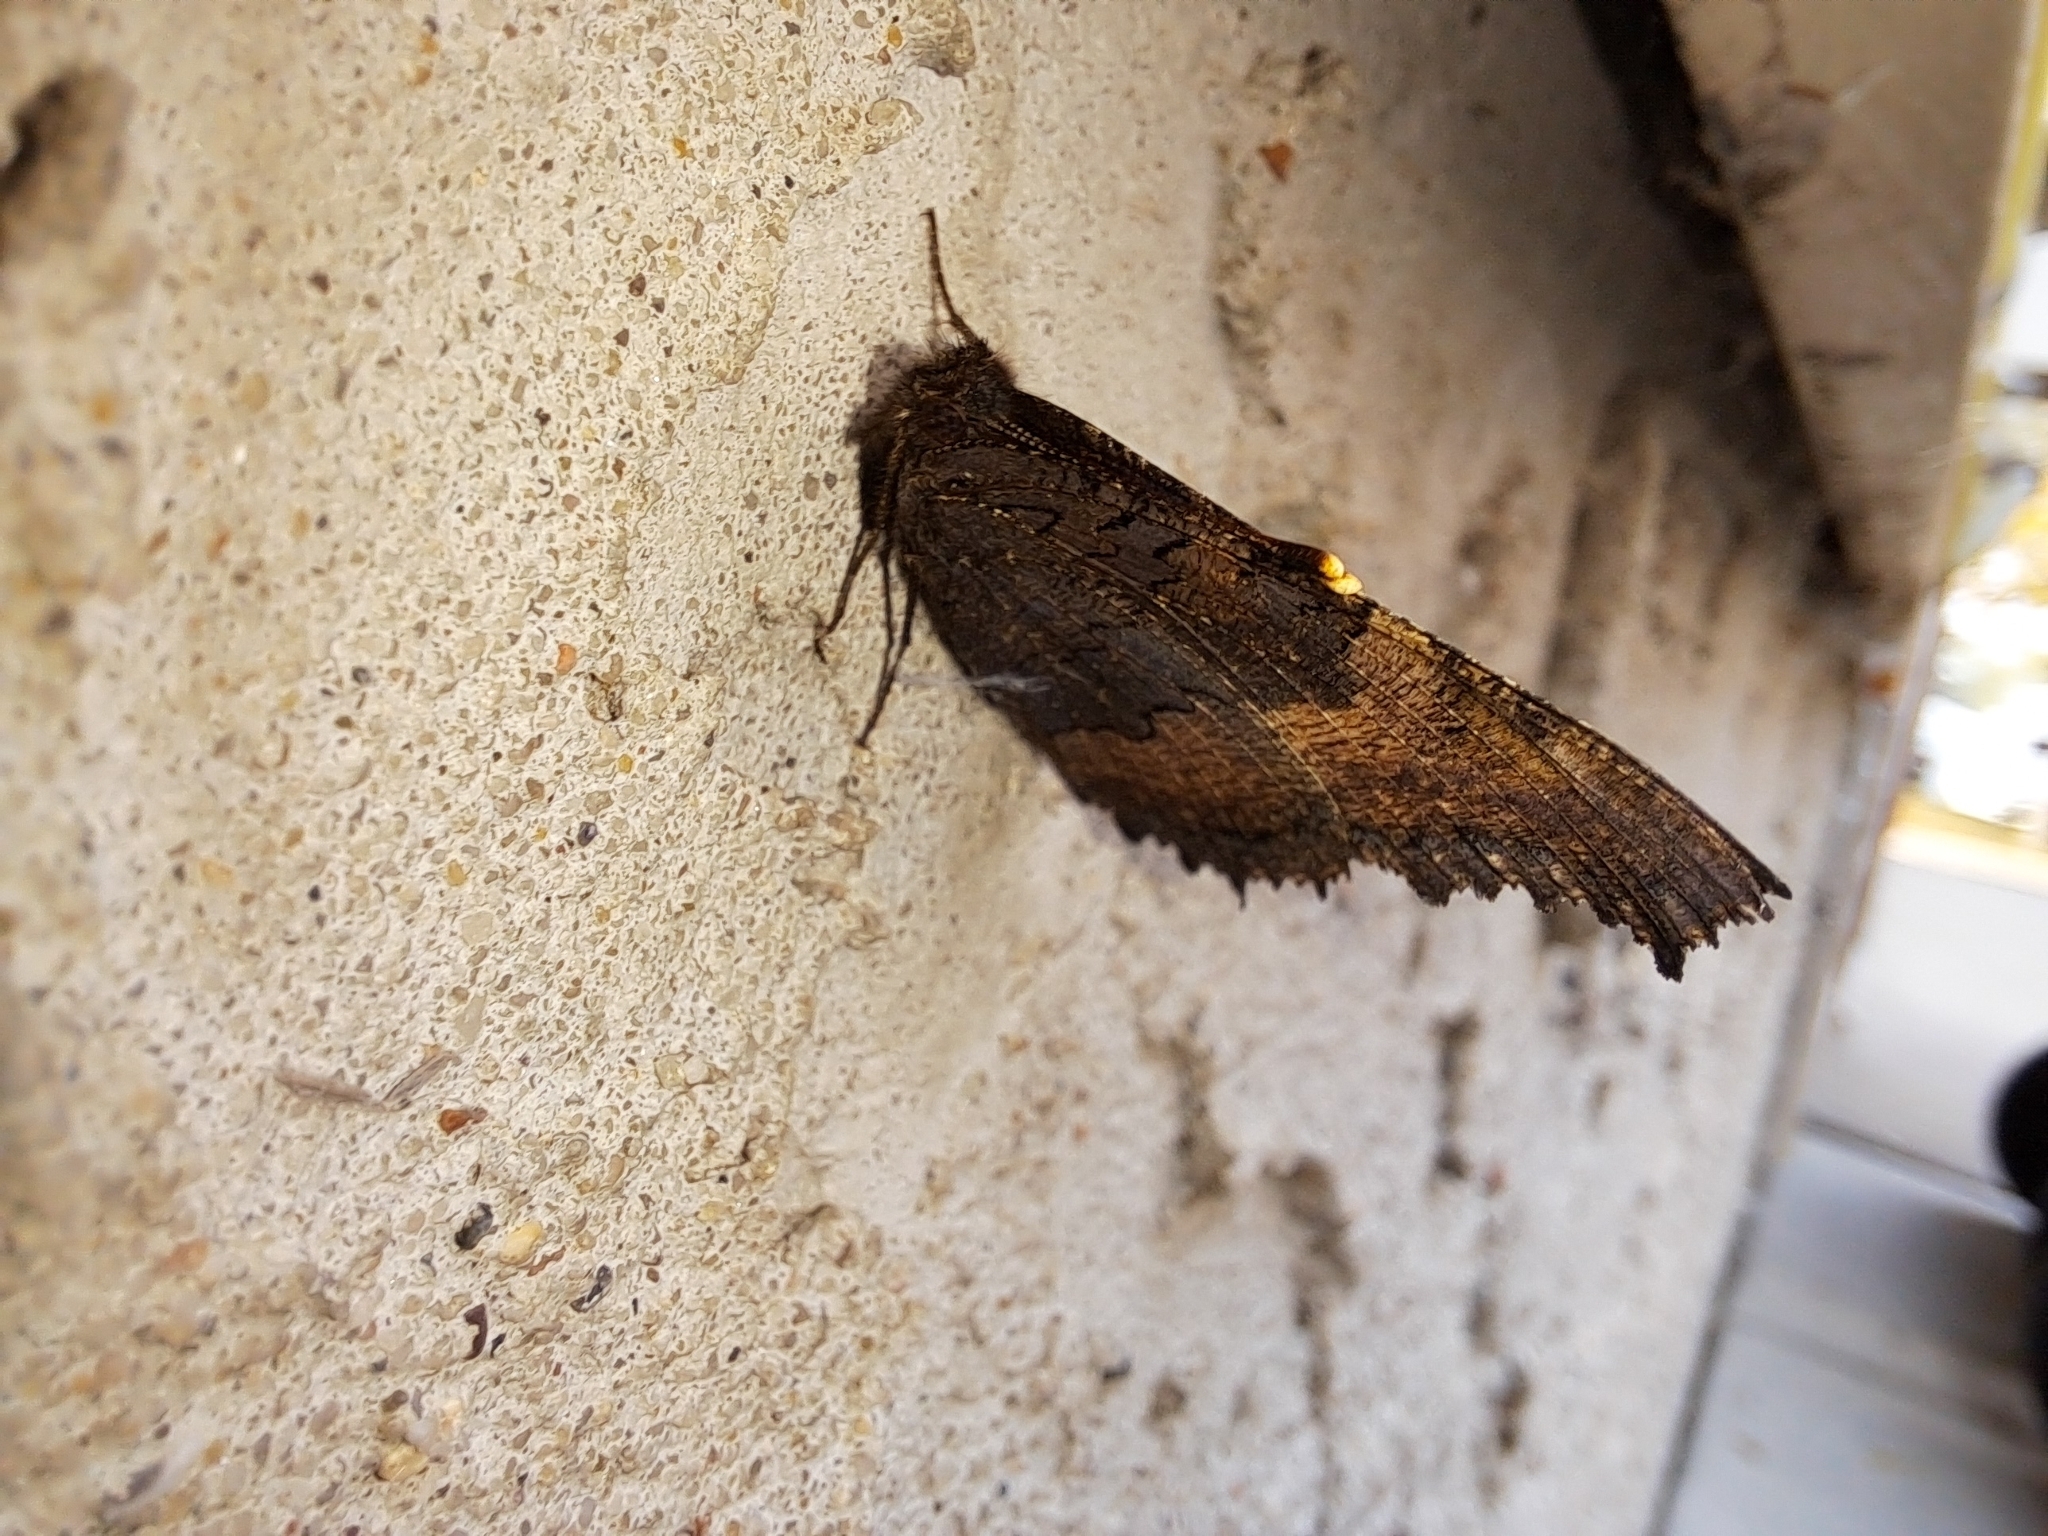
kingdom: Animalia
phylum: Arthropoda
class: Insecta
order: Lepidoptera
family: Nymphalidae
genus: Aglais
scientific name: Aglais milberti
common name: Milbert's tortoiseshell
